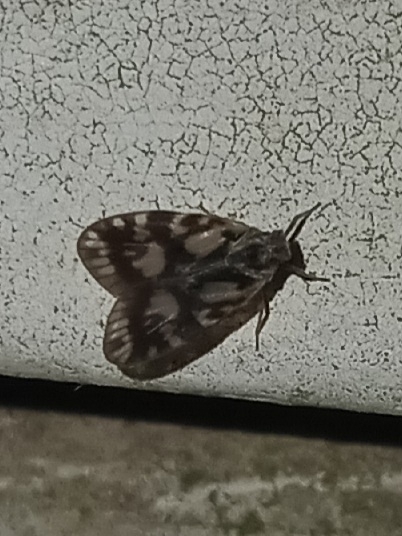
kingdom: Animalia
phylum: Arthropoda
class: Insecta
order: Hemiptera
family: Cixiidae
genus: Bothriocera
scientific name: Bothriocera cognita
